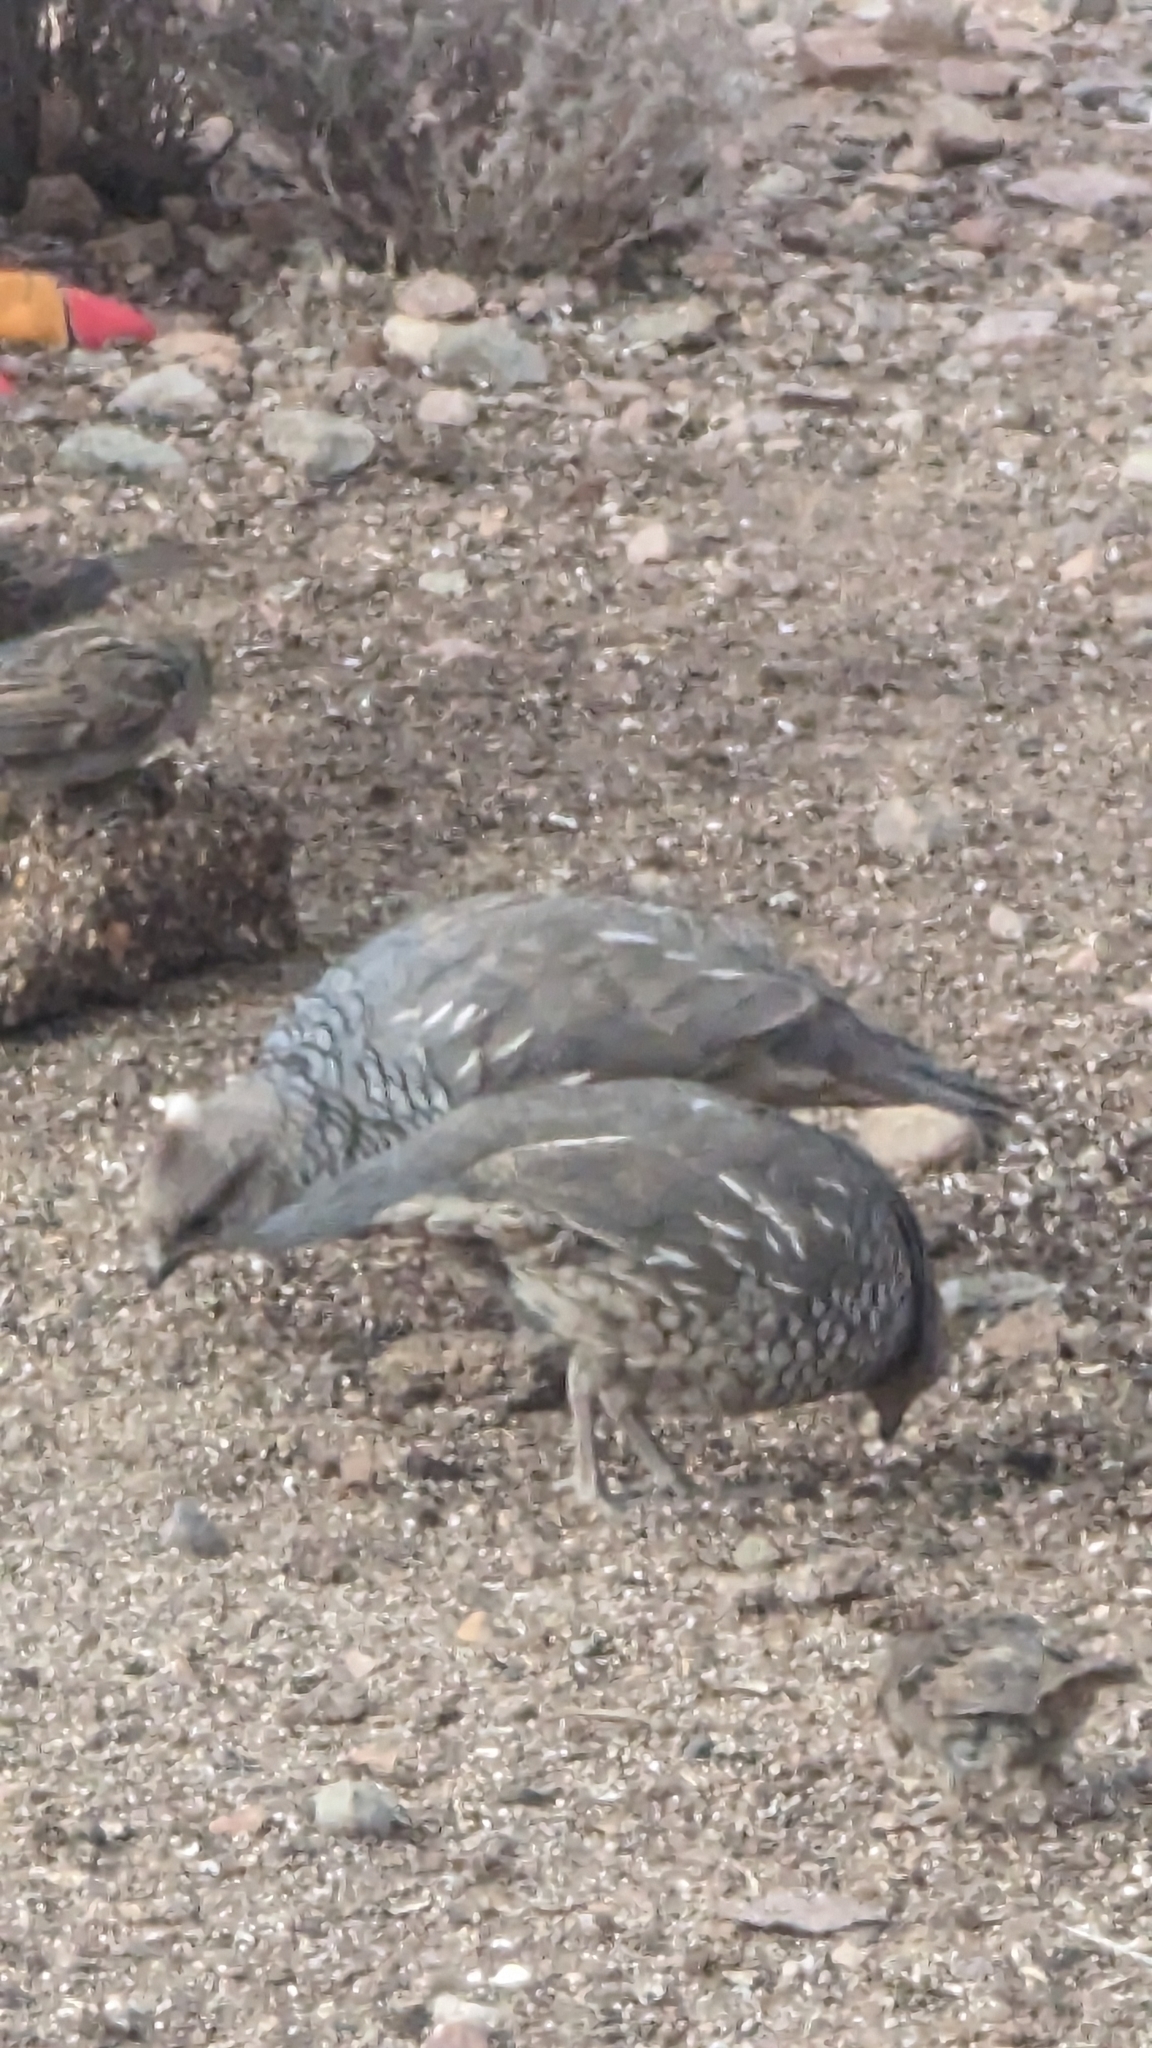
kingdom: Animalia
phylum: Chordata
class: Aves
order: Galliformes
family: Odontophoridae
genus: Callipepla
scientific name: Callipepla squamata
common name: Scaled quail
